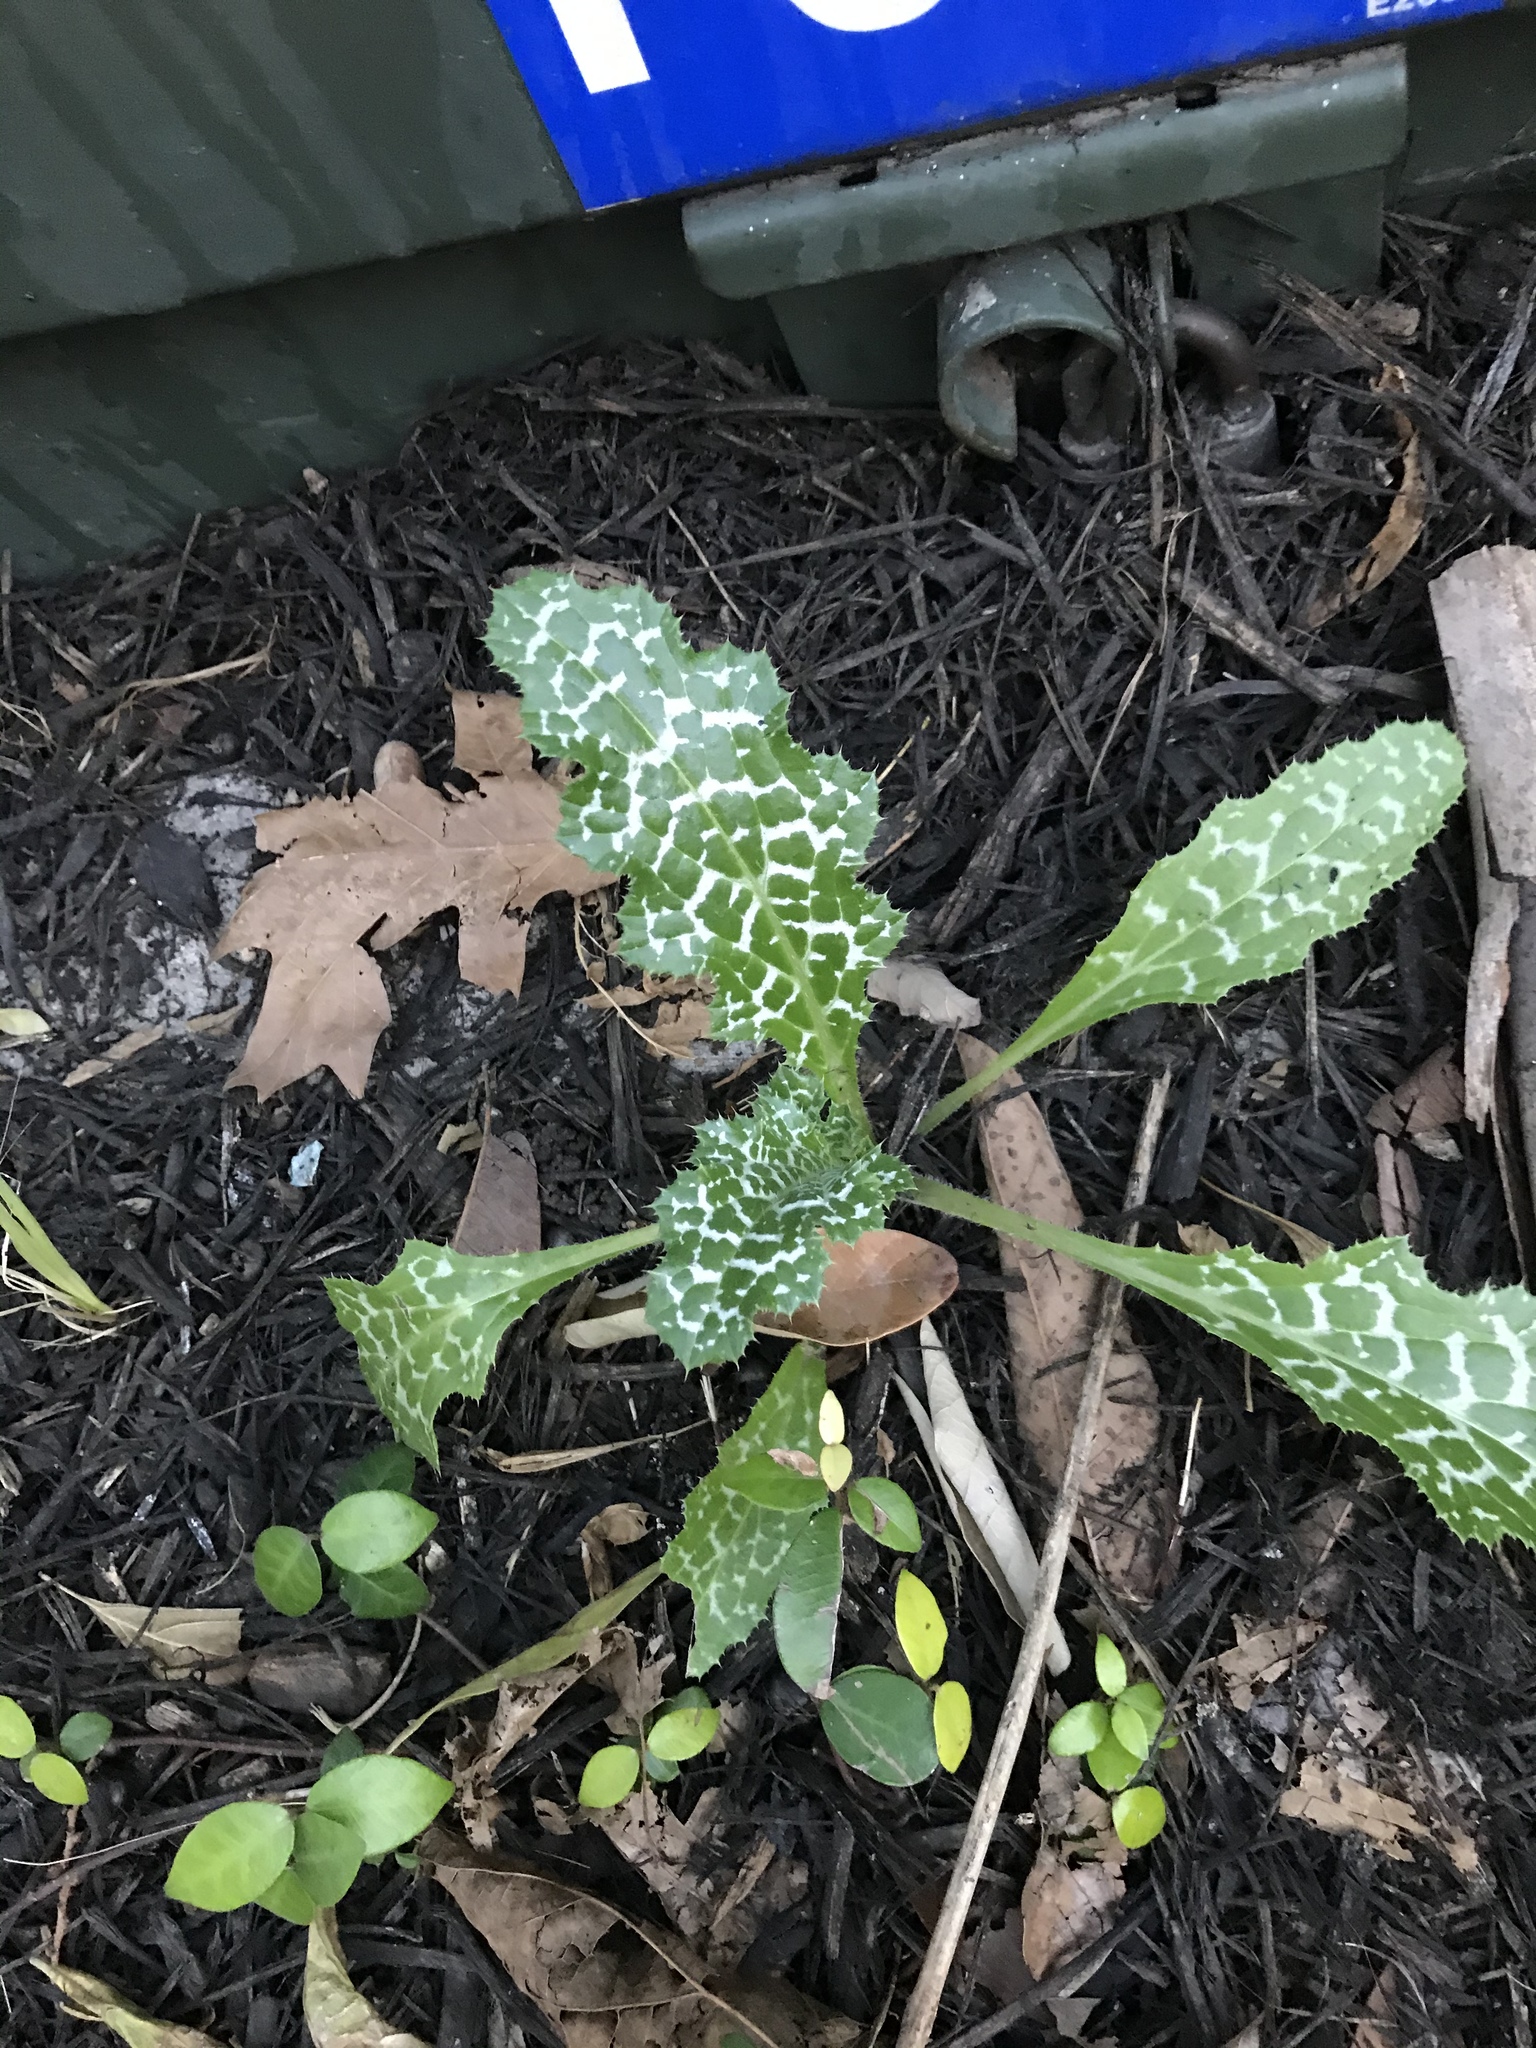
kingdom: Plantae
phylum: Tracheophyta
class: Magnoliopsida
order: Asterales
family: Asteraceae
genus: Silybum
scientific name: Silybum marianum
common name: Milk thistle
